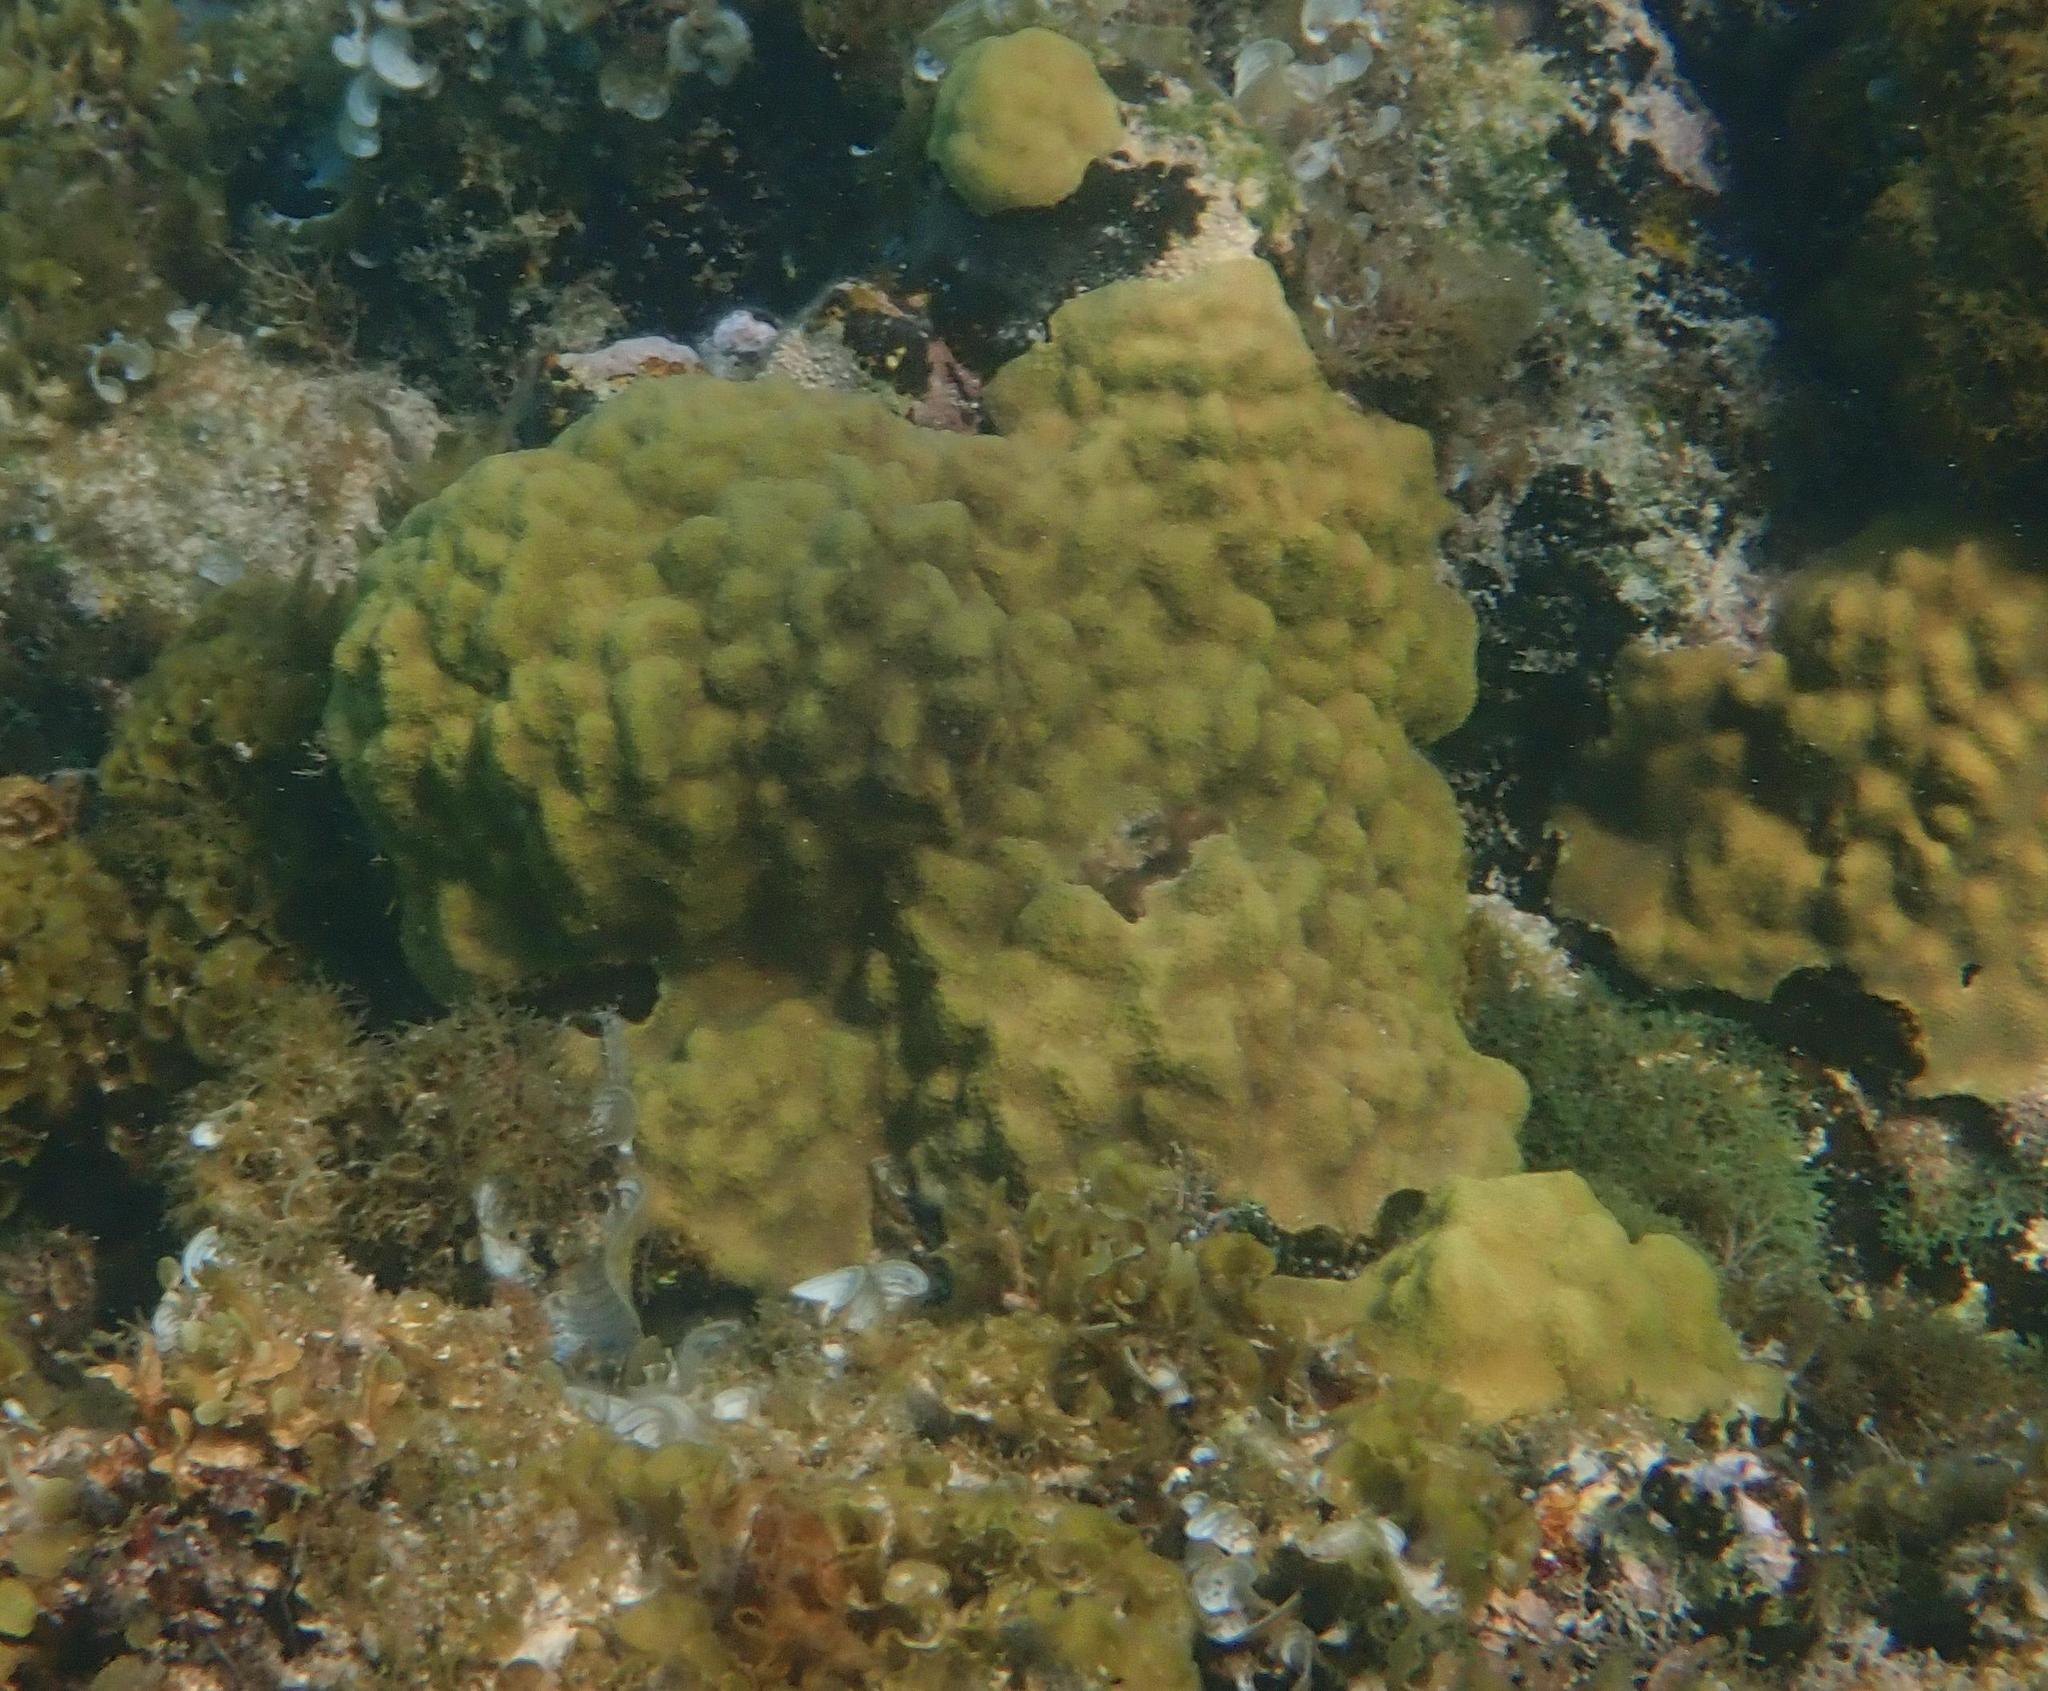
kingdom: Animalia
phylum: Cnidaria
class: Anthozoa
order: Scleractinia
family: Poritidae
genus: Porites
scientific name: Porites astreoides
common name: Mustard hill coral
